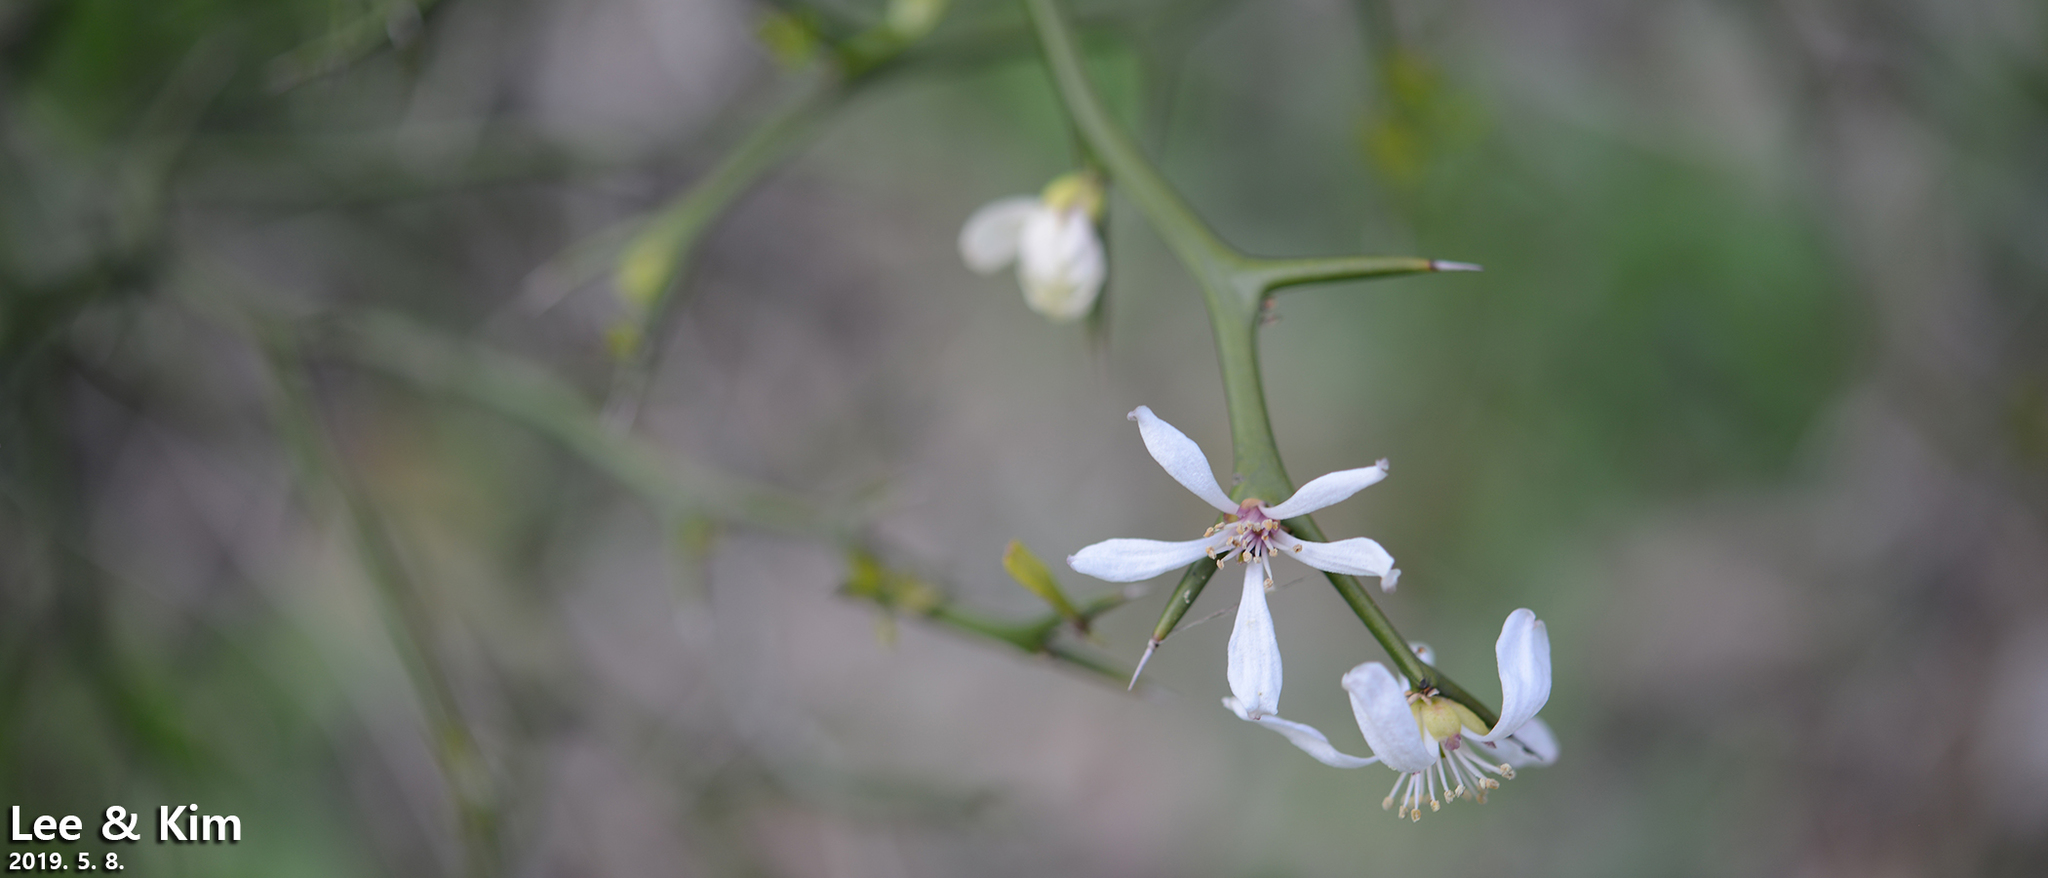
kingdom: Plantae
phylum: Tracheophyta
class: Magnoliopsida
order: Sapindales
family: Rutaceae
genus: Citrus
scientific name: Citrus trifoliata
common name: Japanese bitter-orange
